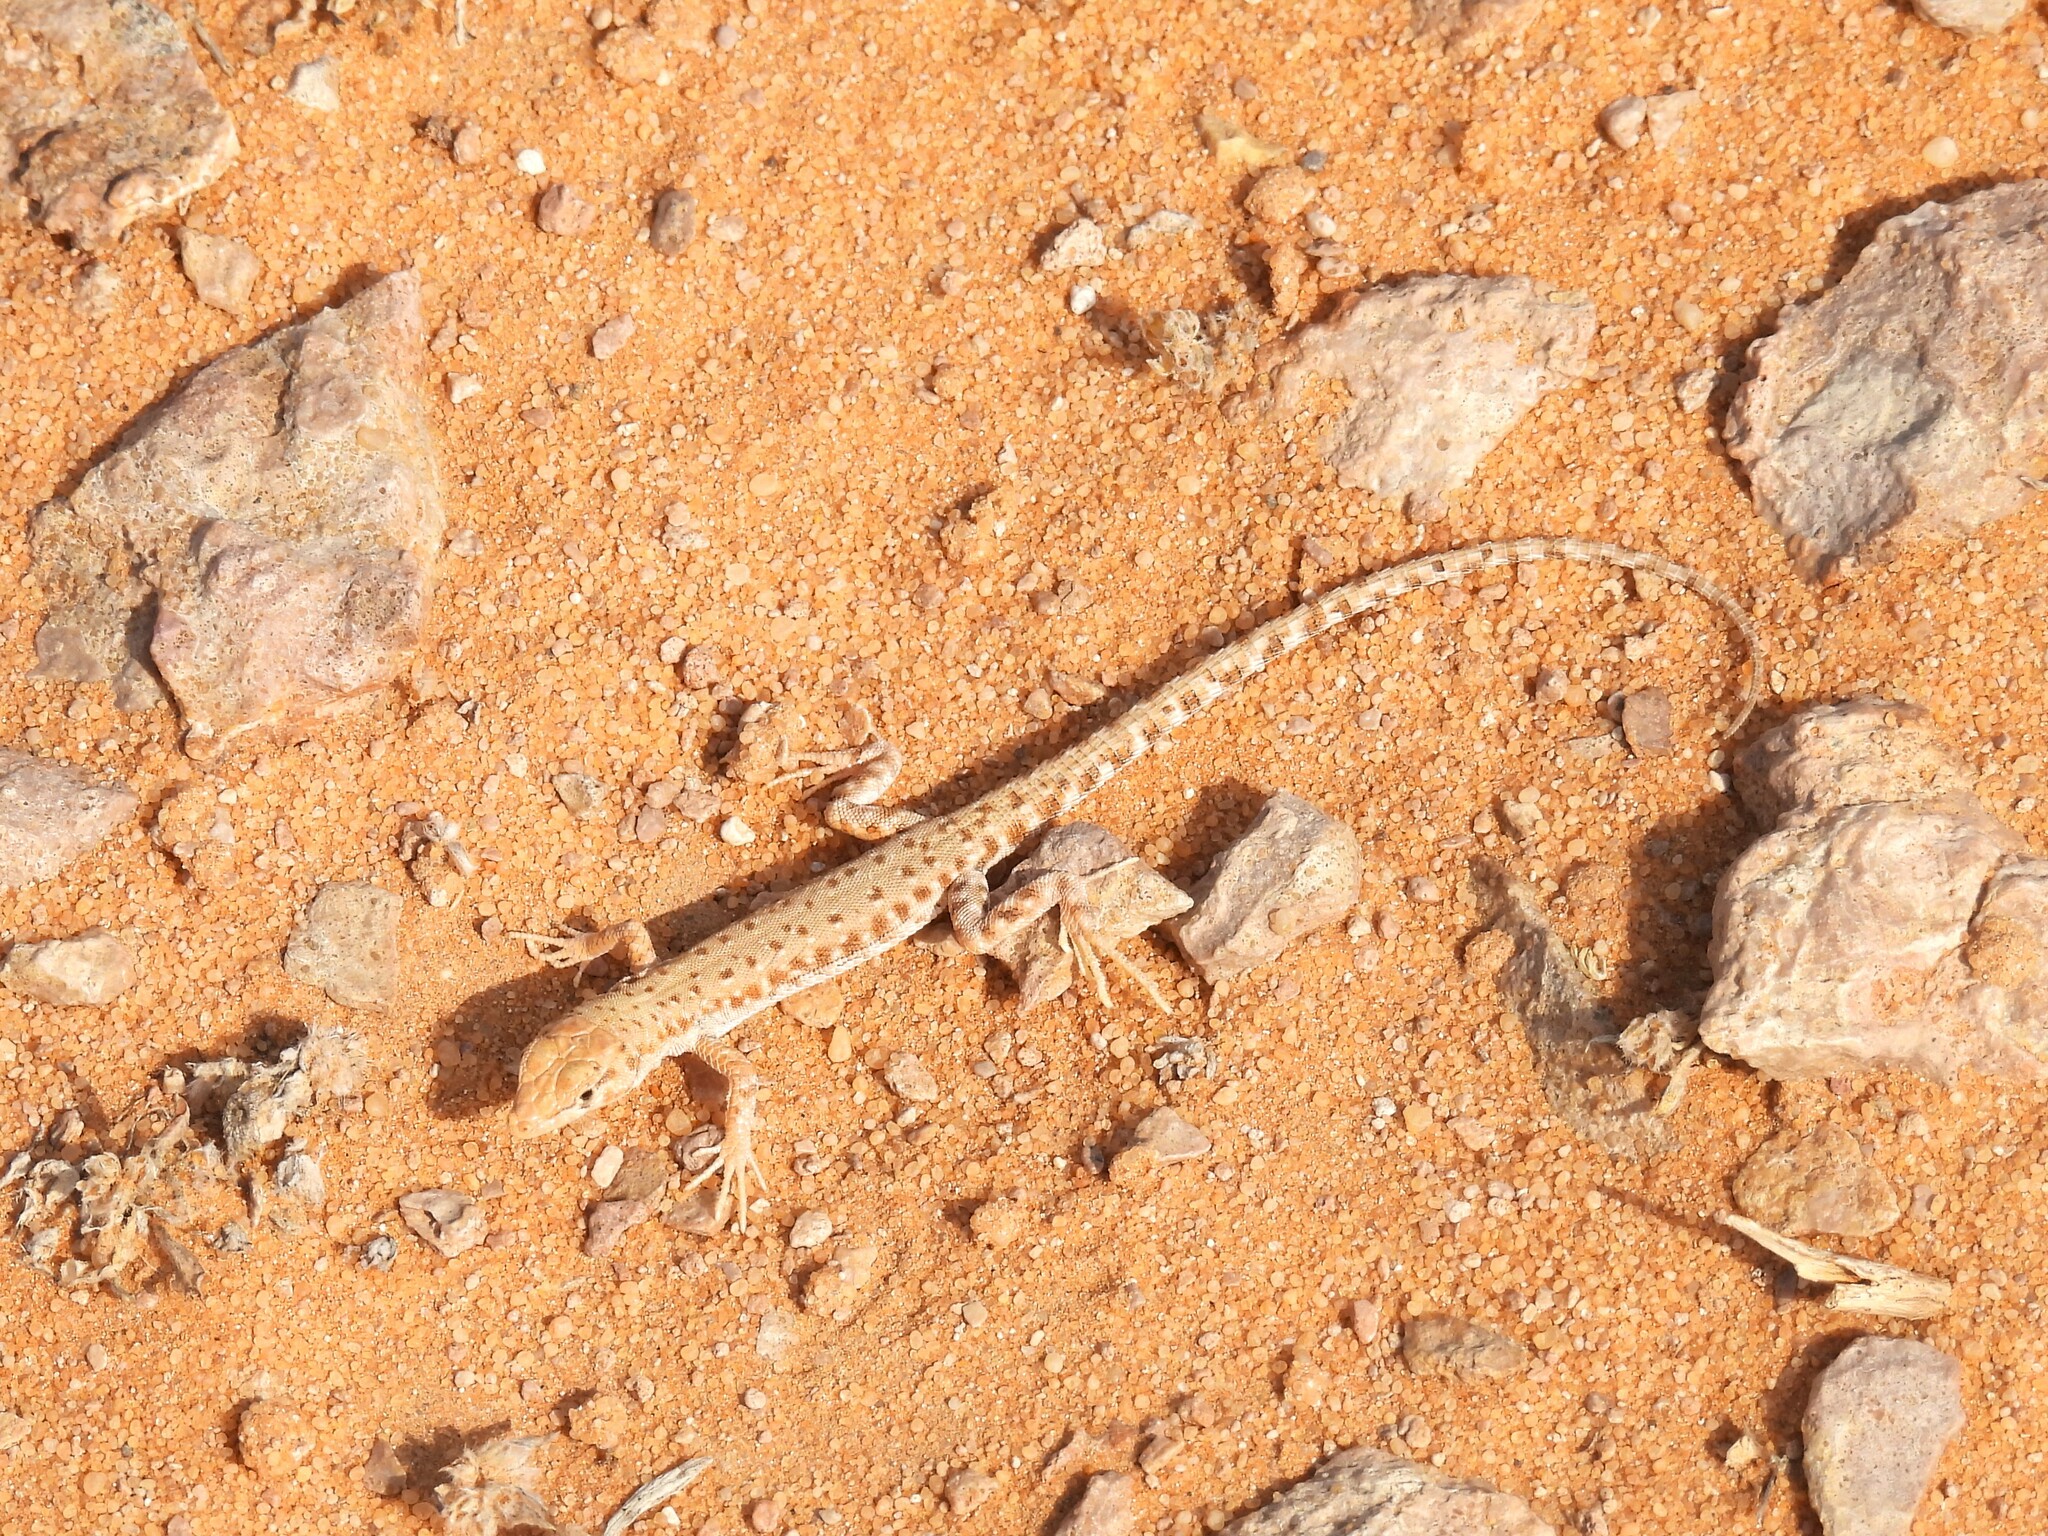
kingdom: Animalia
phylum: Chordata
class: Squamata
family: Lacertidae
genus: Mesalina
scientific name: Mesalina brevirostris
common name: Blanford's short-nosed desert lizard
